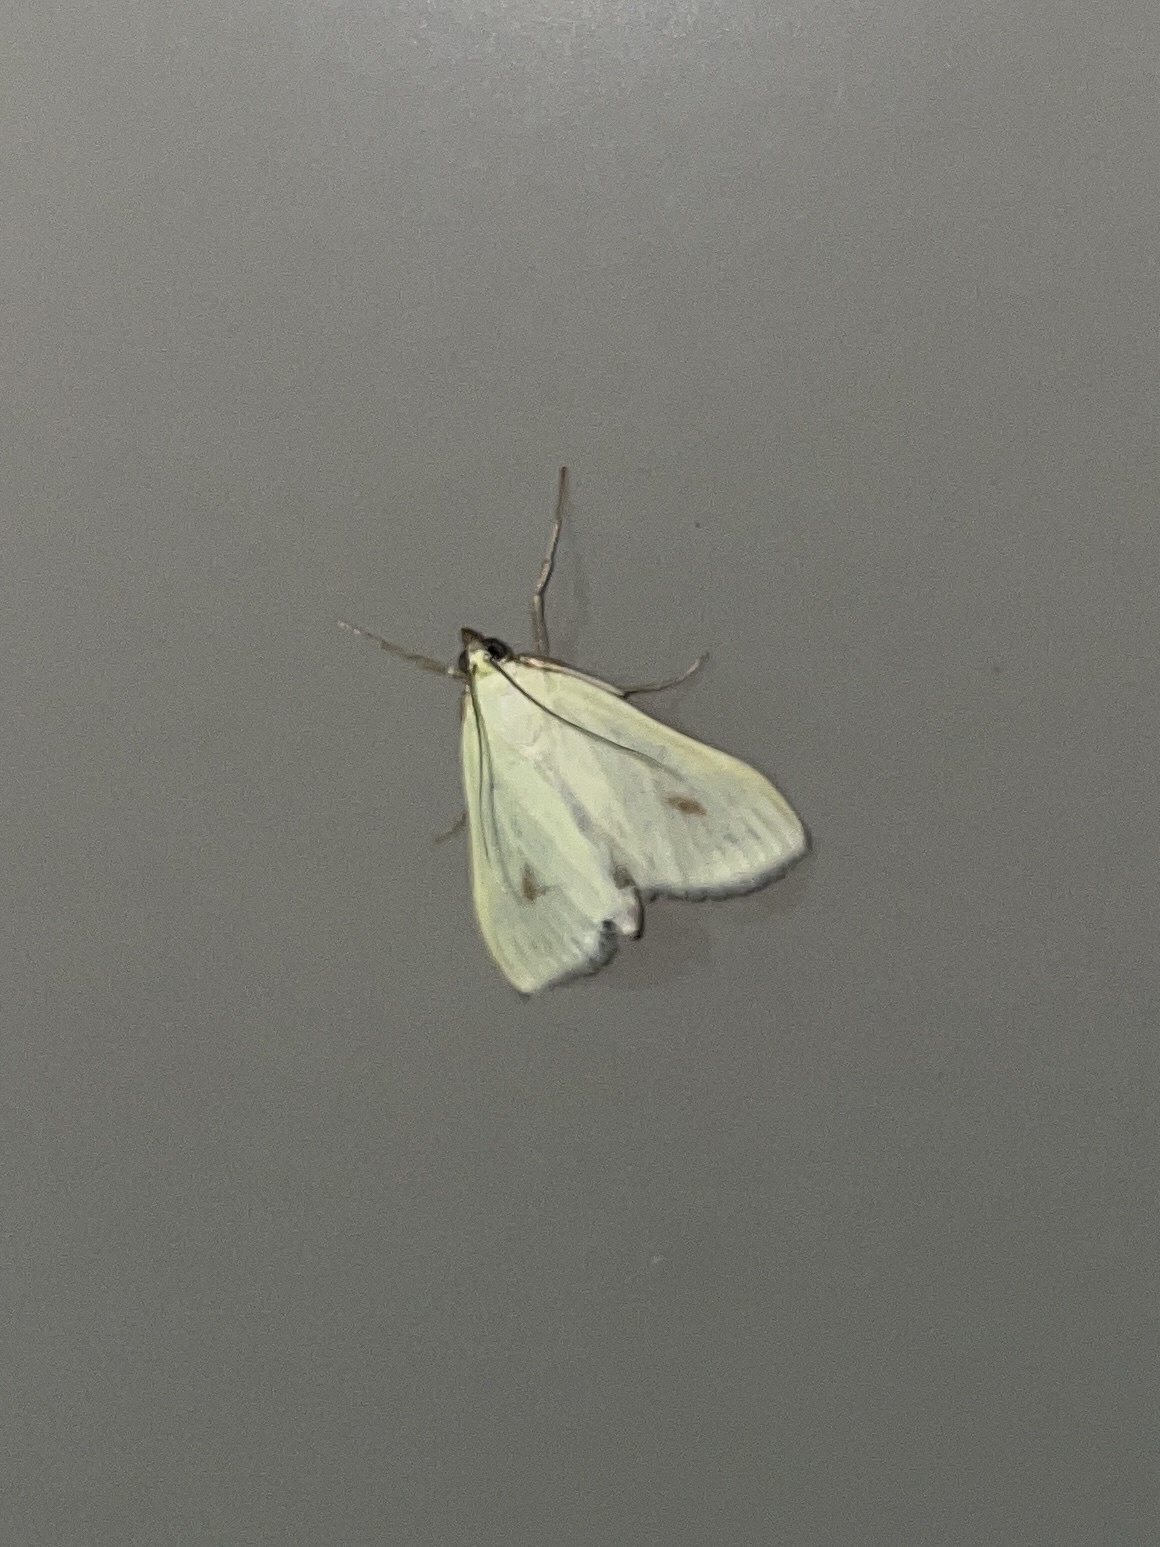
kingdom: Animalia
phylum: Arthropoda
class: Insecta
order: Lepidoptera
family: Crambidae
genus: Sitochroa
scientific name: Sitochroa palealis
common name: Greenish-yellow sitochroa moth
